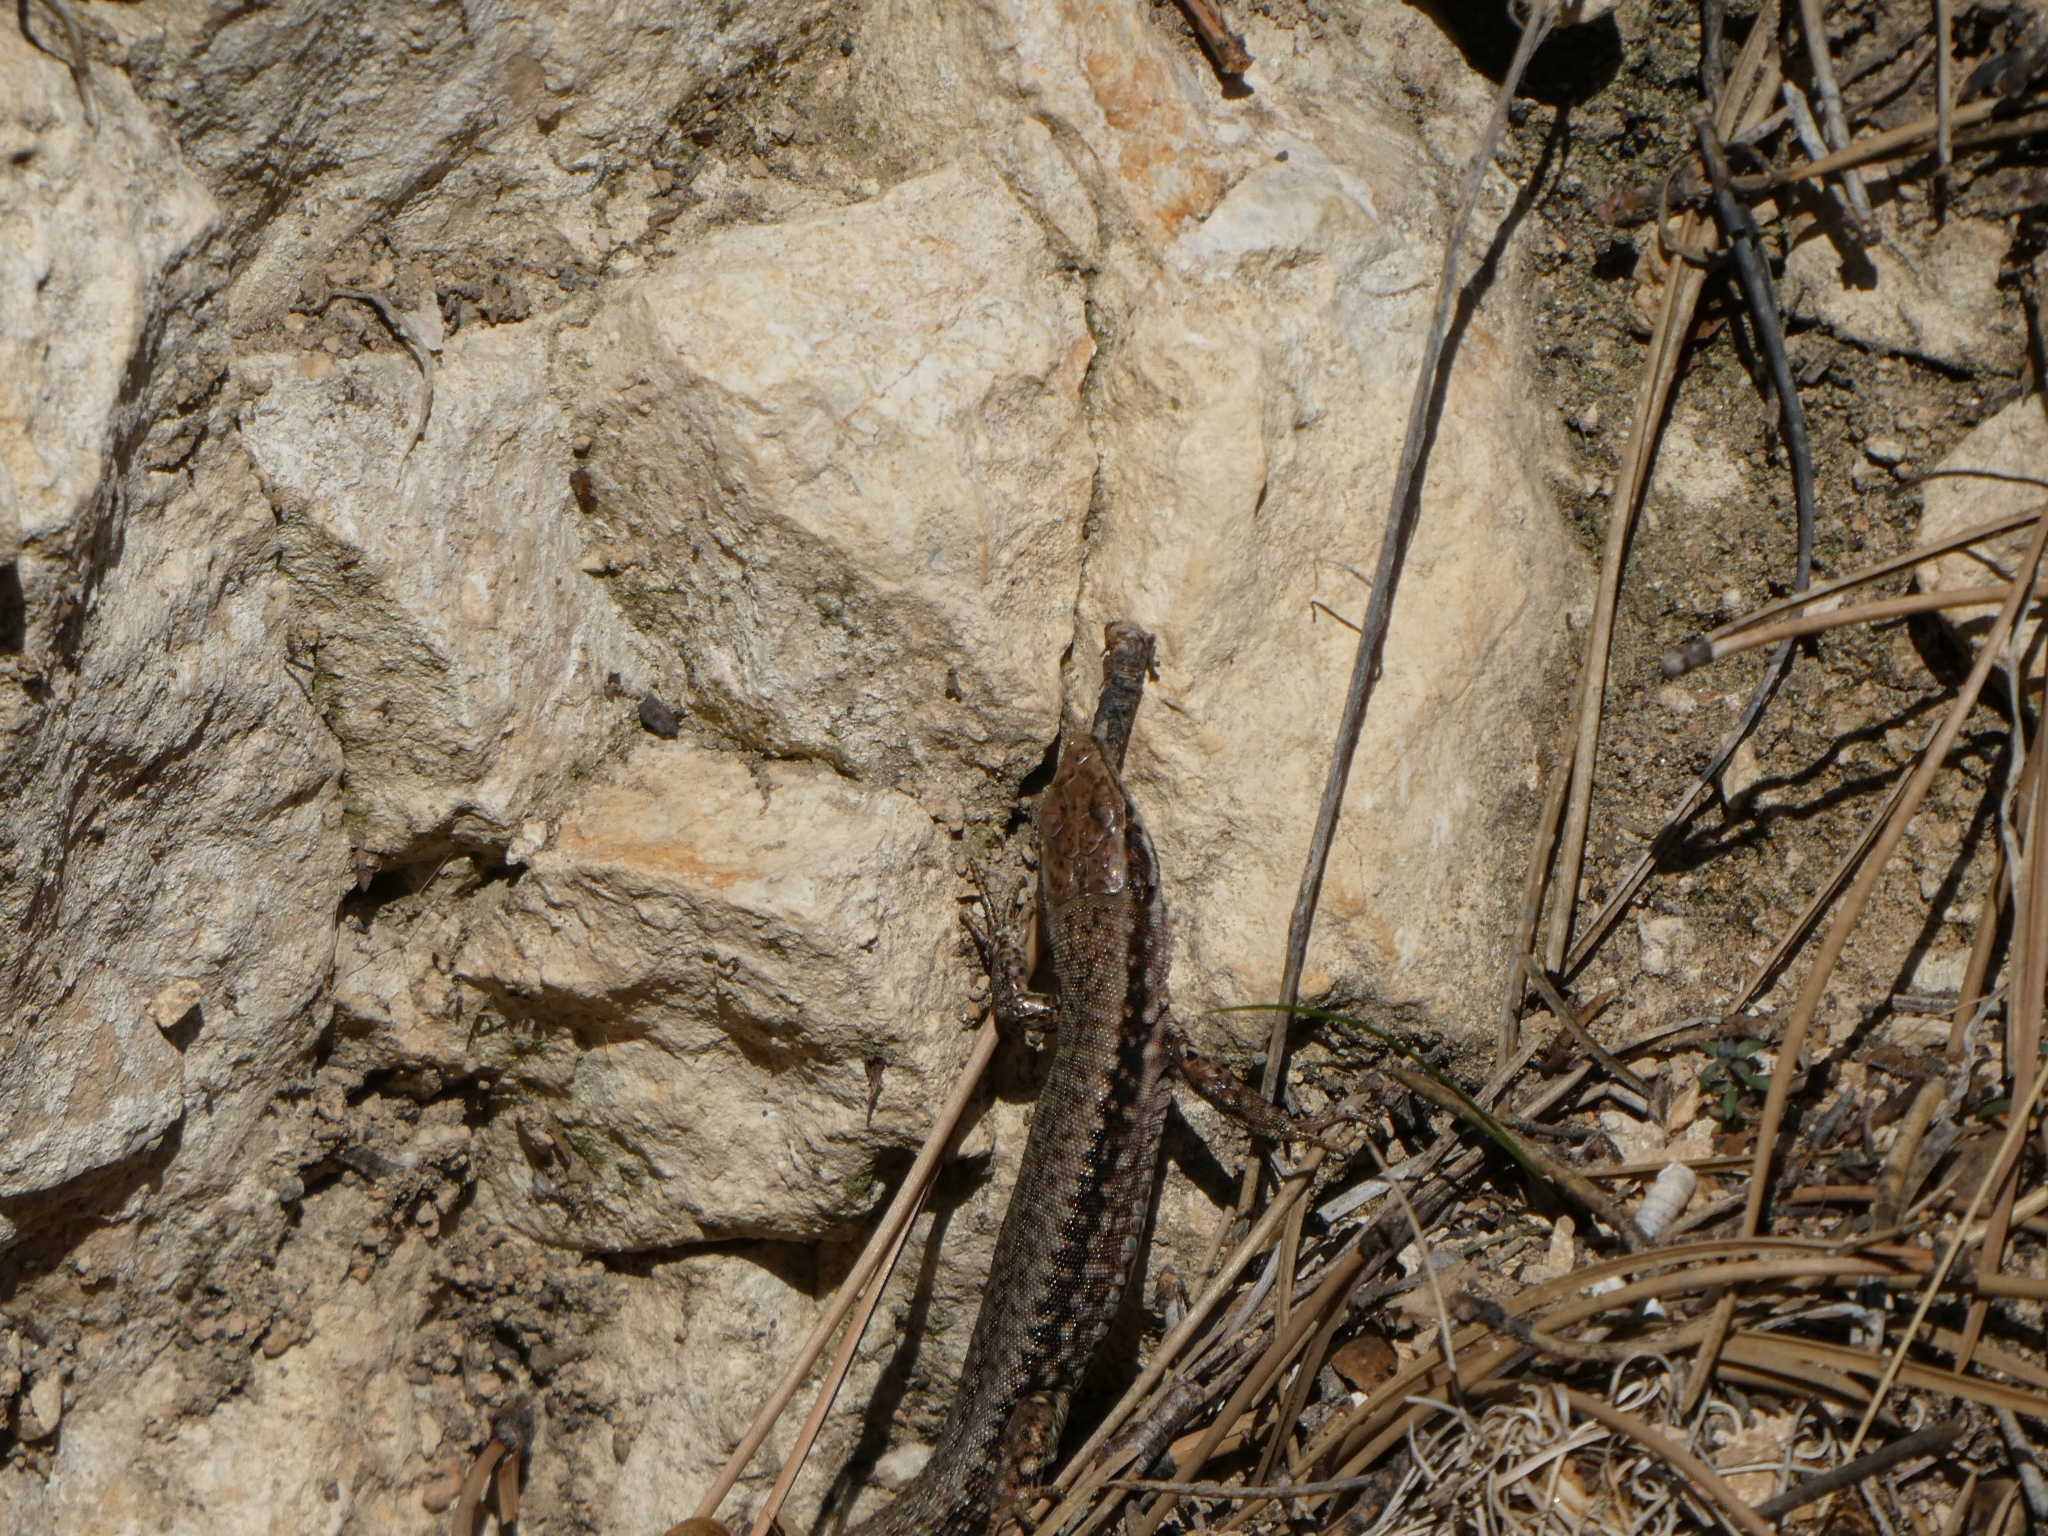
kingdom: Animalia
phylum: Chordata
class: Squamata
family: Lacertidae
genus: Podarcis
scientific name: Podarcis muralis
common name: Common wall lizard
